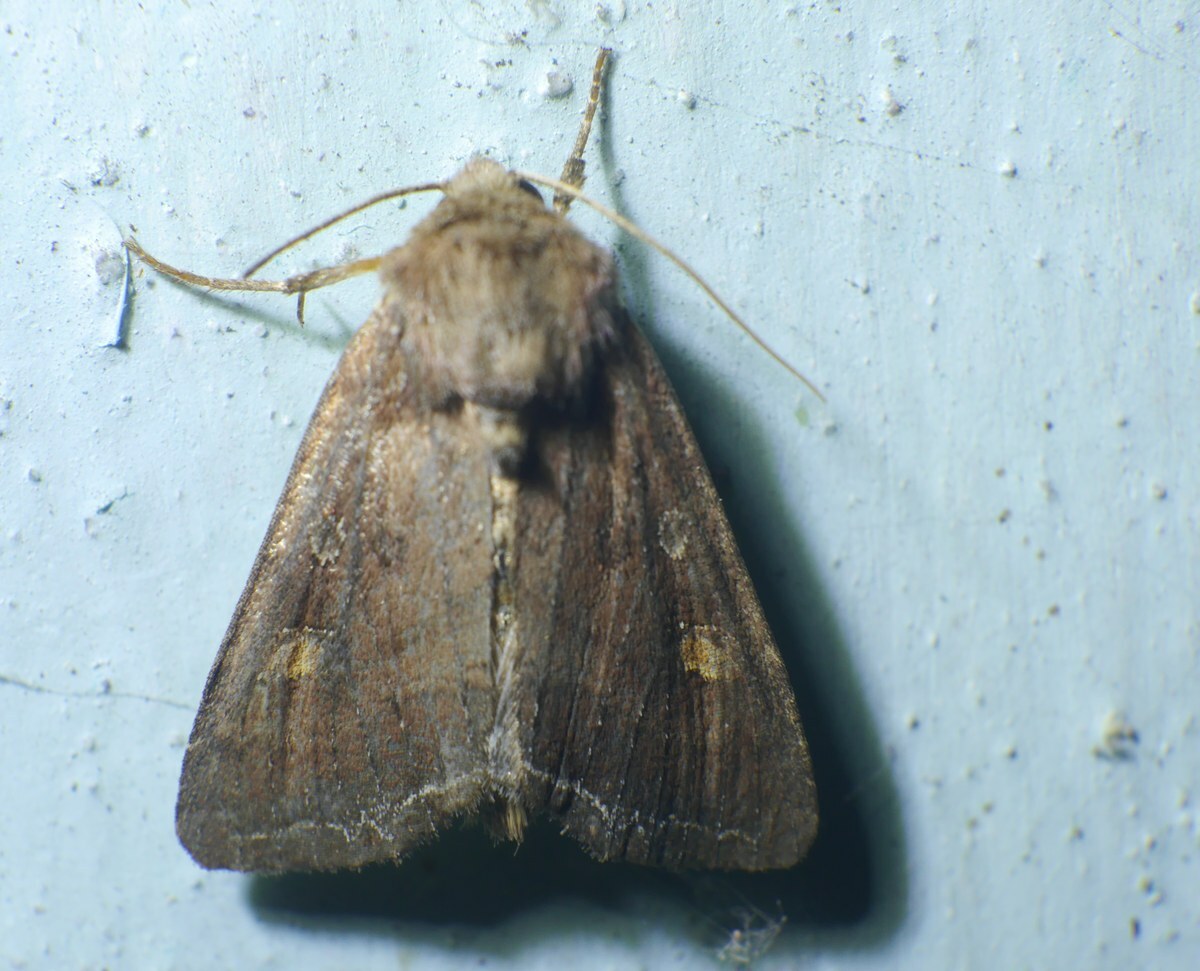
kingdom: Animalia
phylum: Arthropoda
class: Insecta
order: Lepidoptera
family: Noctuidae
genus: Lacanobia
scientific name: Lacanobia oleracea
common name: Bright-line brown-eye
